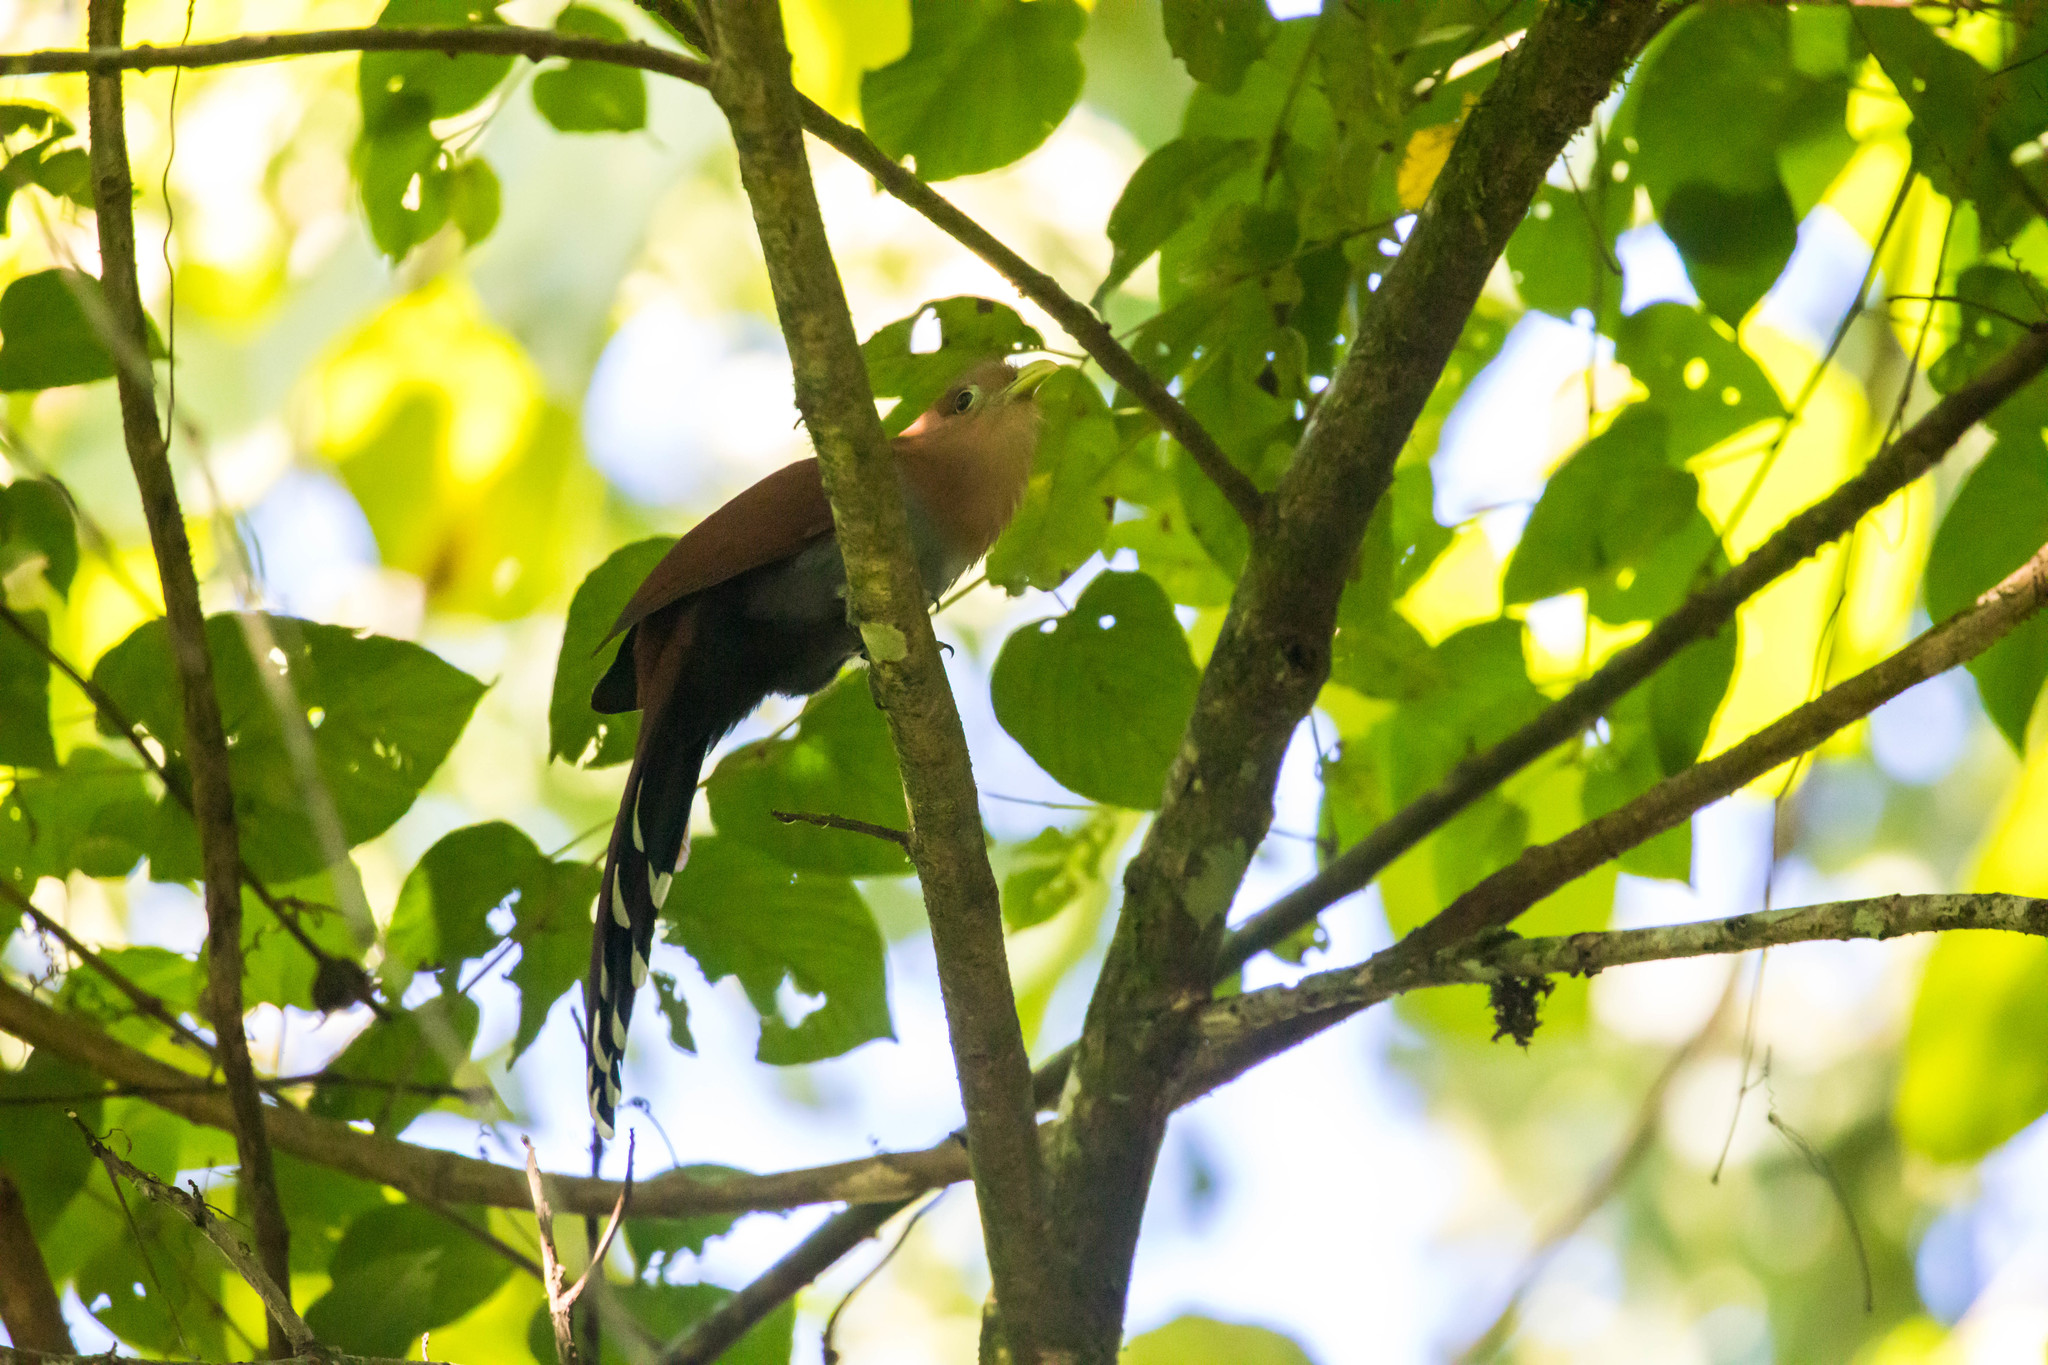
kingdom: Animalia
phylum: Chordata
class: Aves
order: Cuculiformes
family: Cuculidae
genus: Piaya
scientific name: Piaya cayana
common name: Squirrel cuckoo
